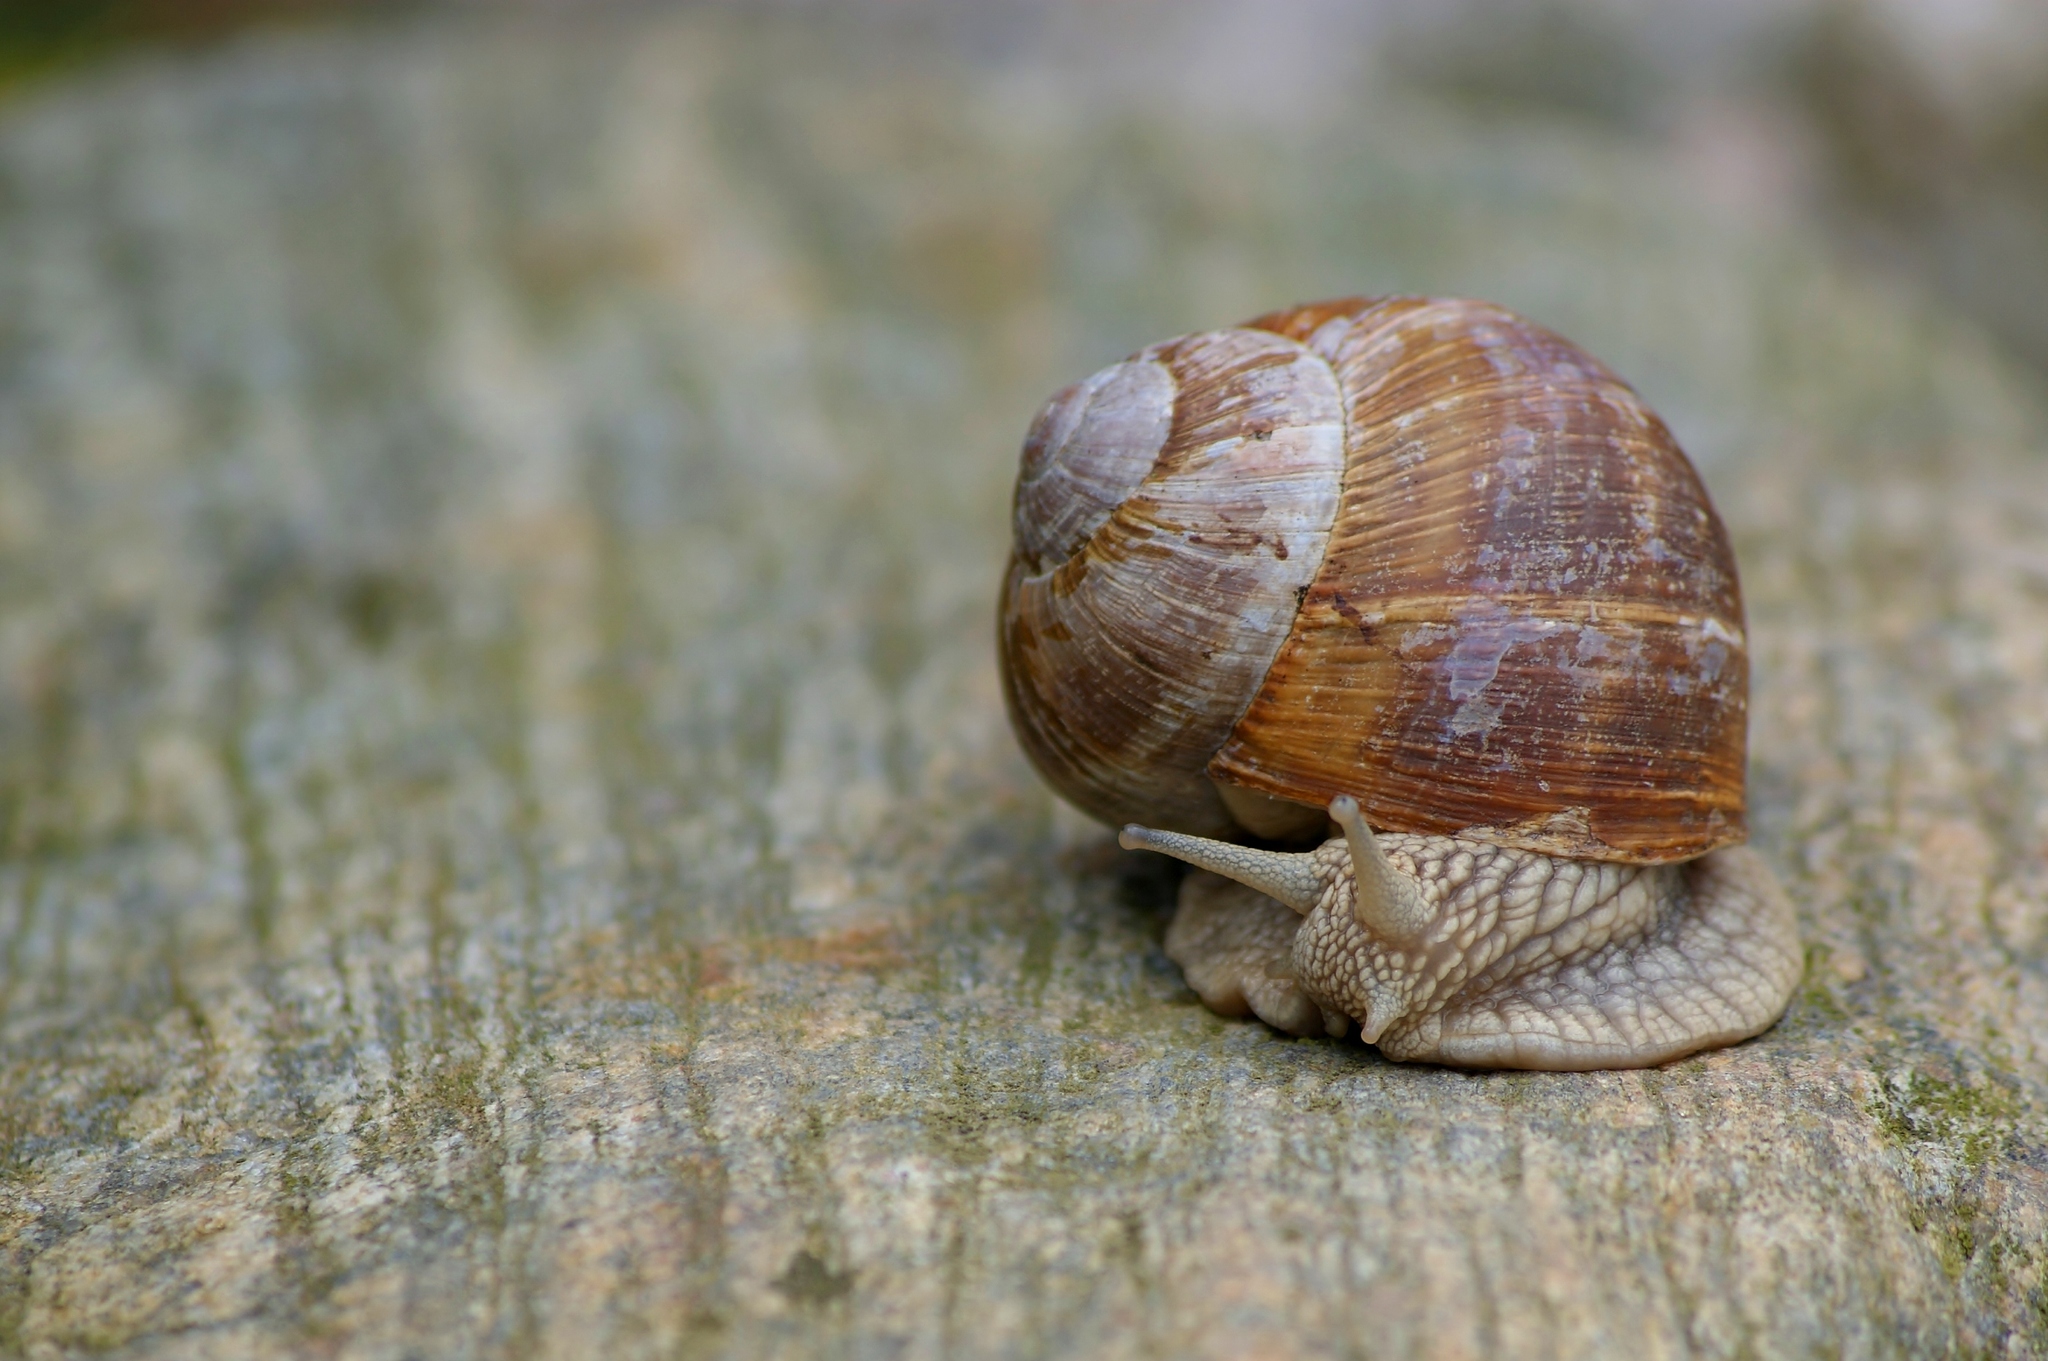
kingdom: Animalia
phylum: Mollusca
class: Gastropoda
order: Stylommatophora
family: Helicidae
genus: Helix
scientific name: Helix pomatia
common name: Roman snail
